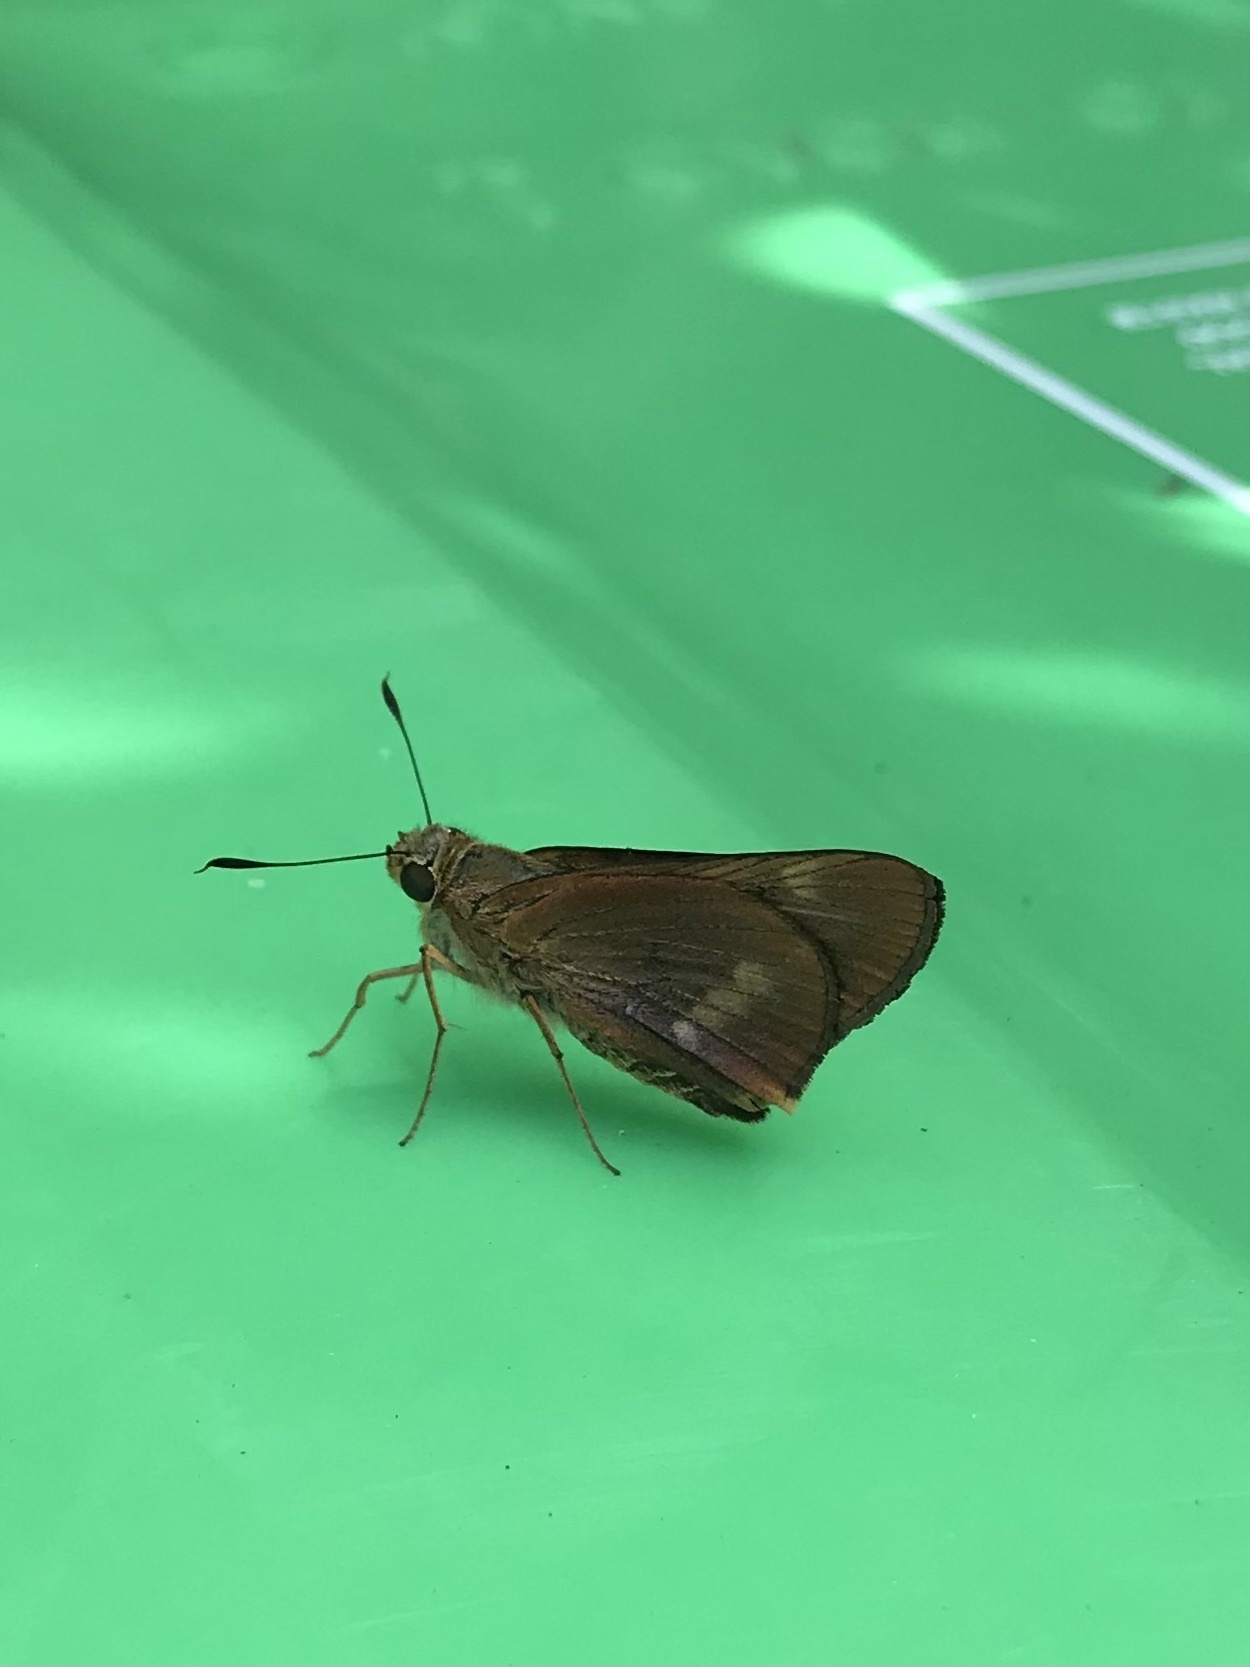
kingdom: Animalia
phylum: Arthropoda
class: Insecta
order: Lepidoptera
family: Hesperiidae
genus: Cephrenes
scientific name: Cephrenes augiades
